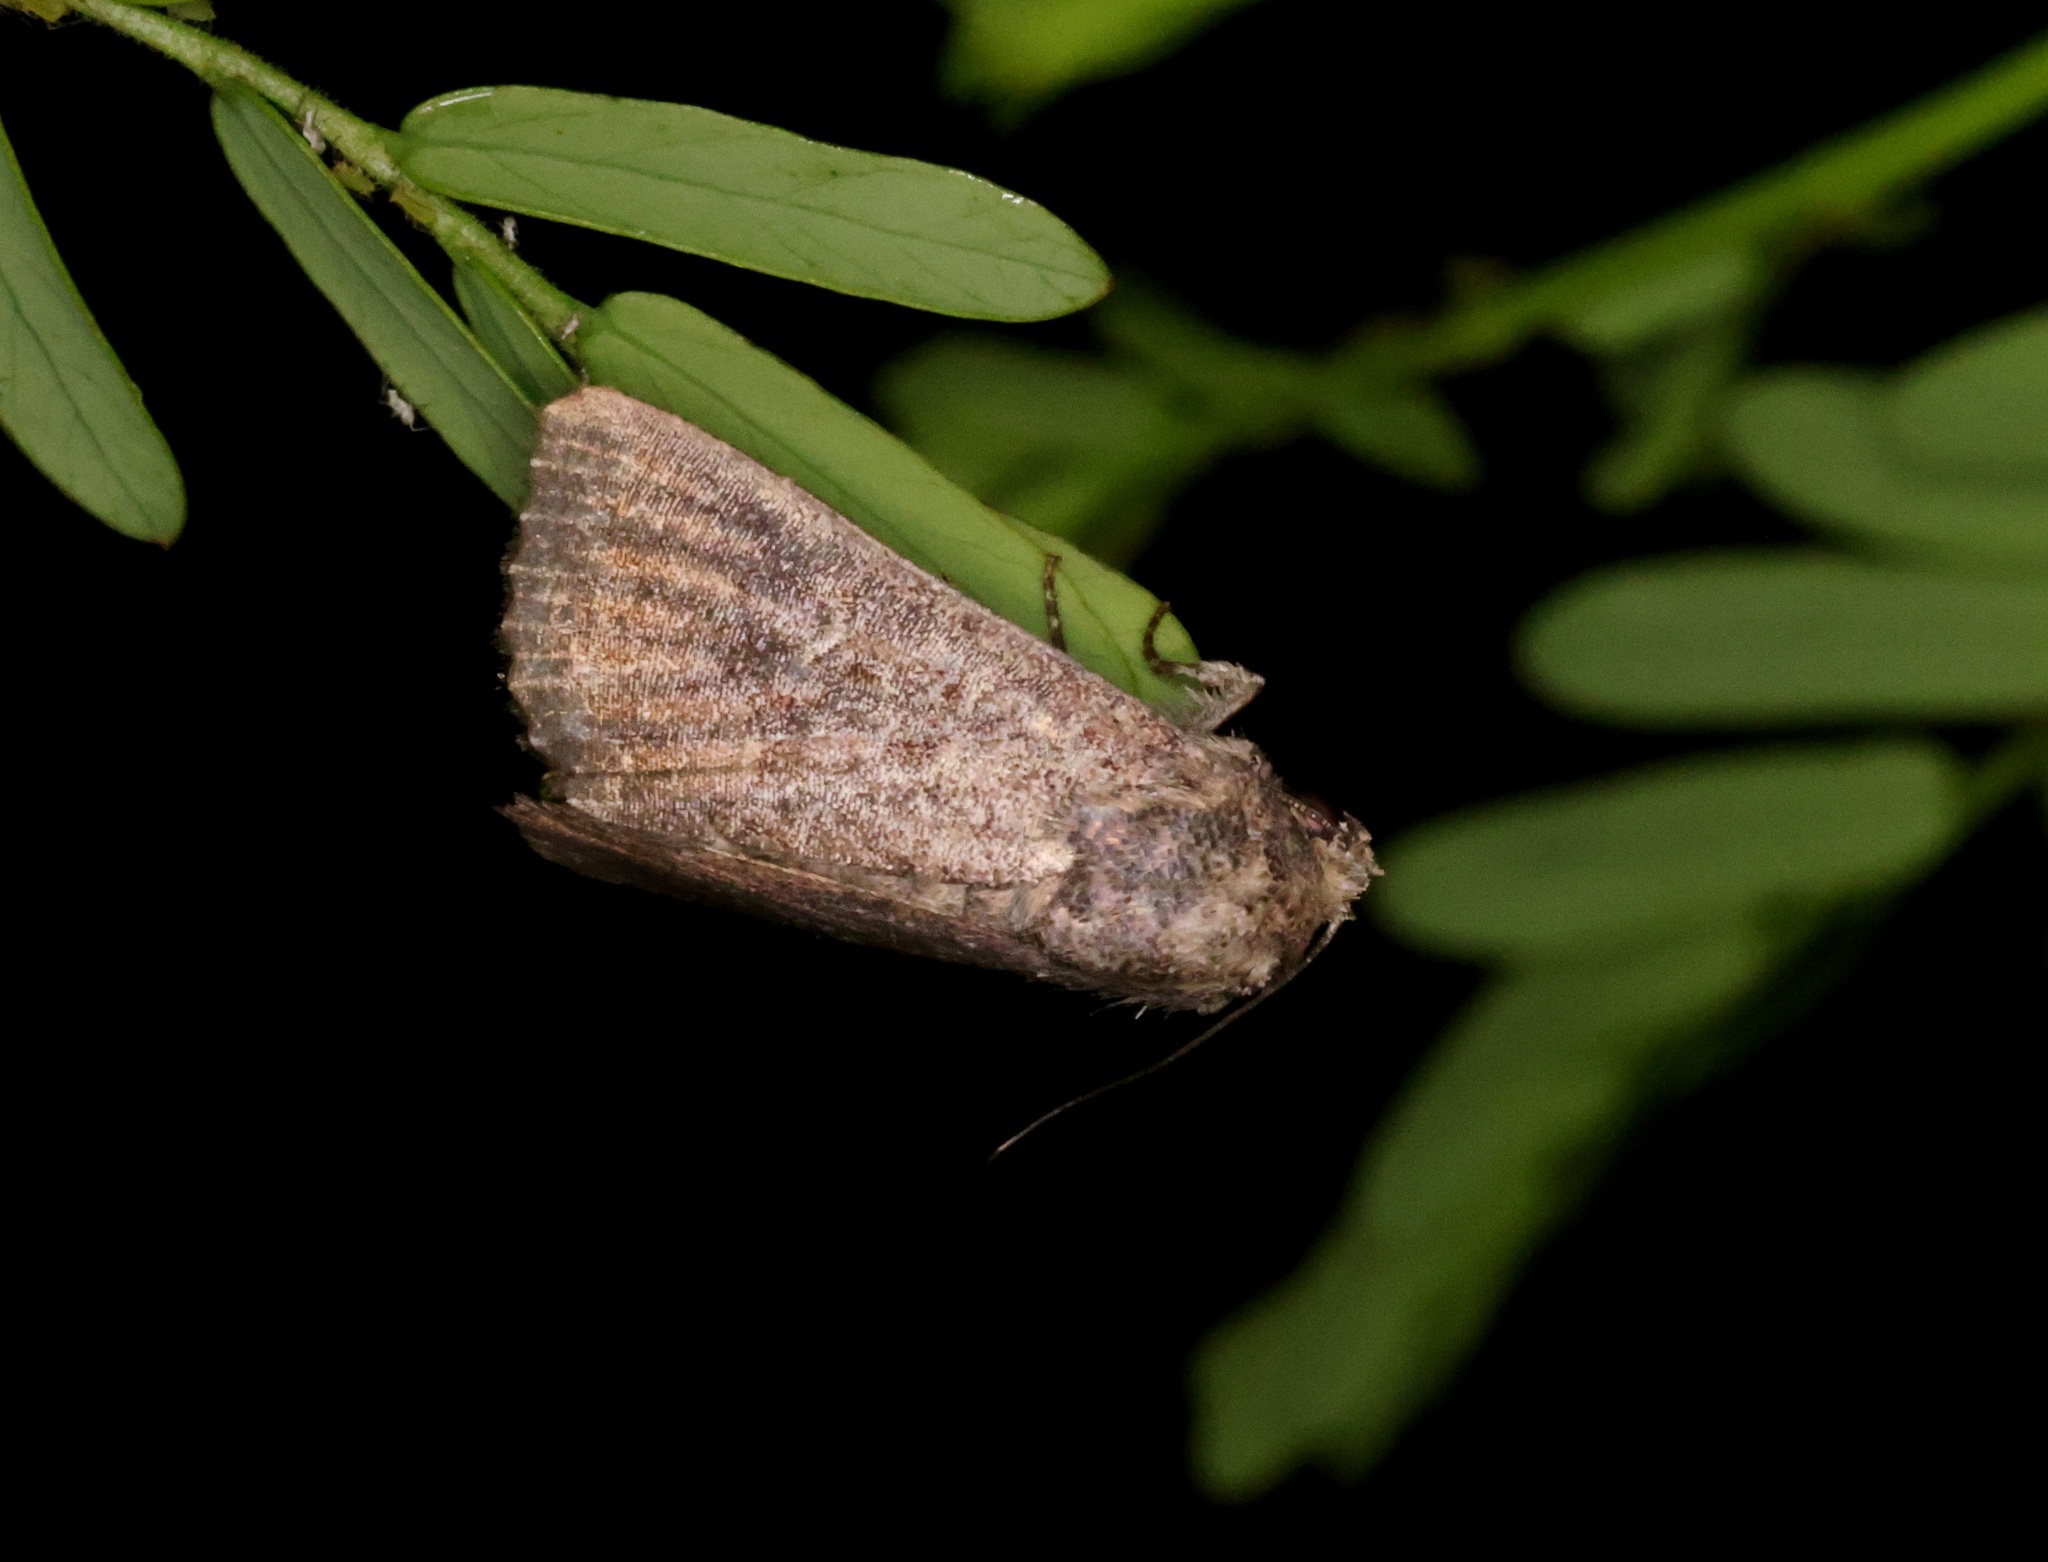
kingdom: Animalia
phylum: Arthropoda
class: Insecta
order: Lepidoptera
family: Noctuidae
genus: Condica
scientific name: Condica conducta
